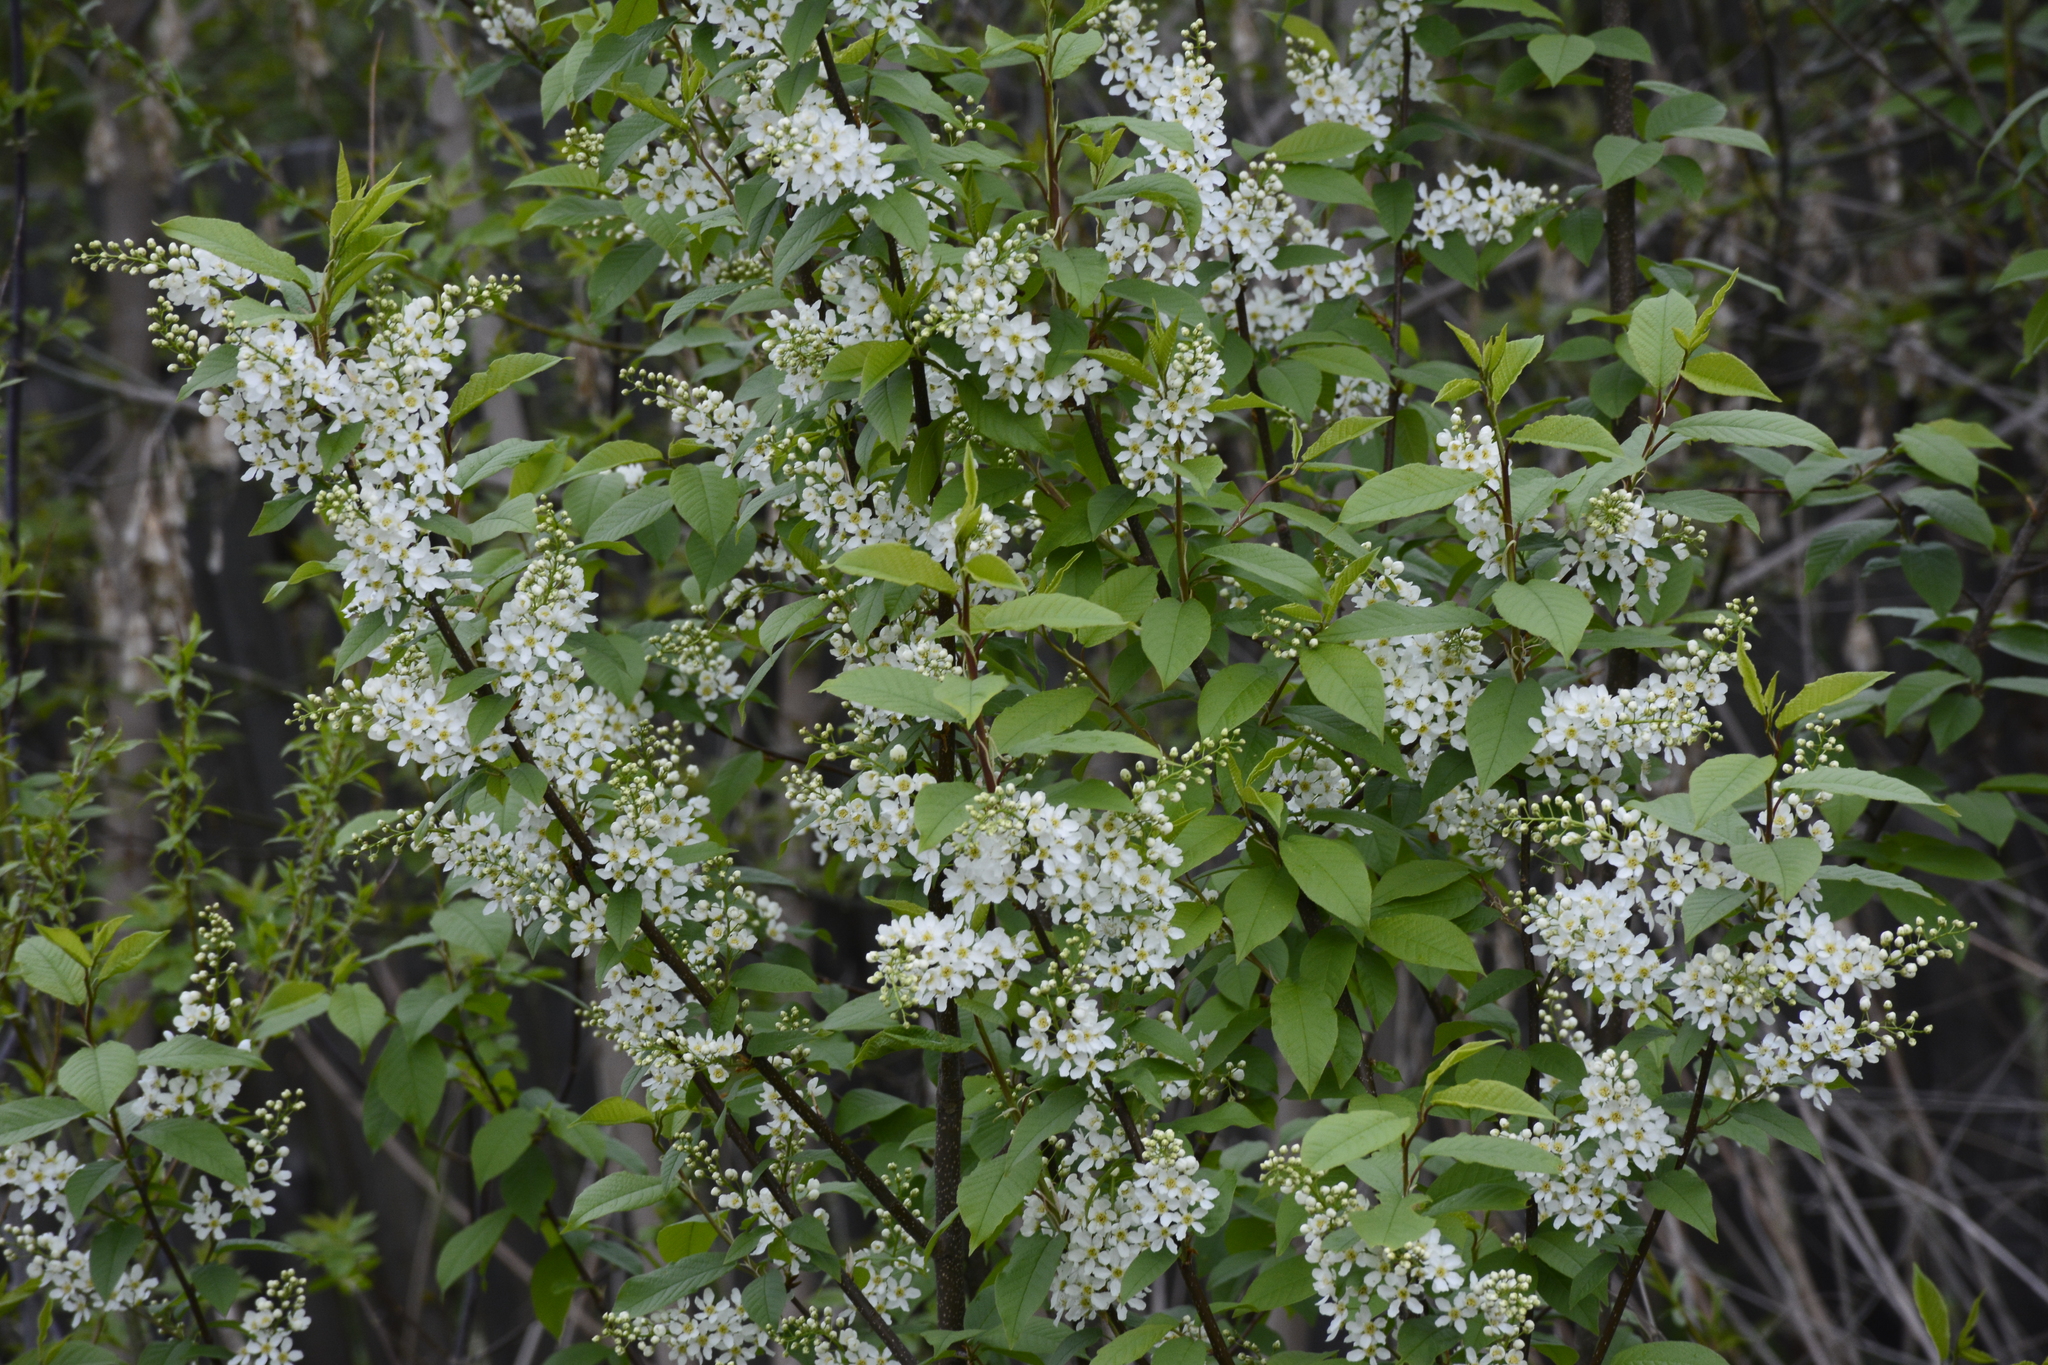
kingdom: Plantae
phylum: Tracheophyta
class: Magnoliopsida
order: Rosales
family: Rosaceae
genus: Prunus
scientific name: Prunus padus
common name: Bird cherry
